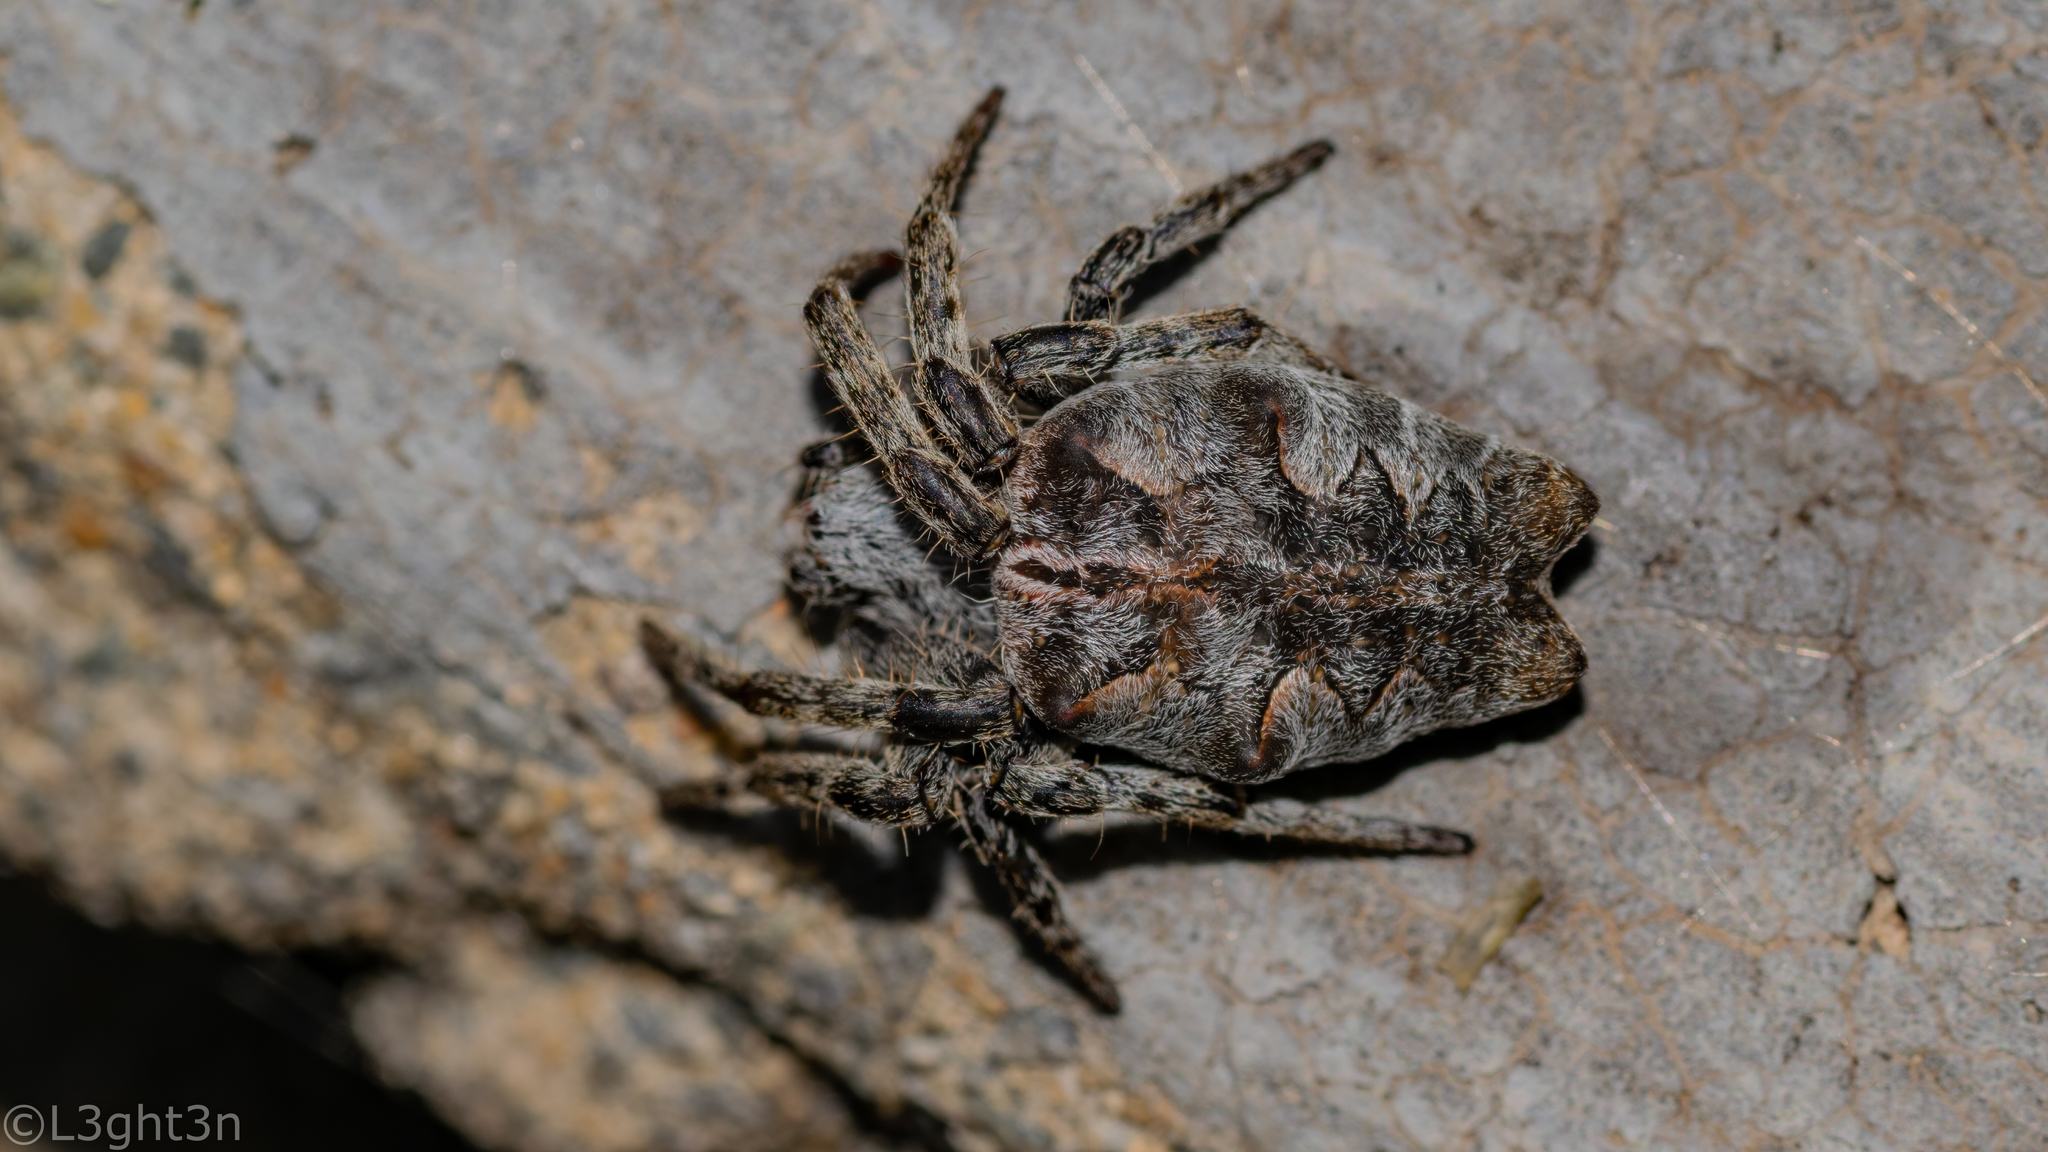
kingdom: Animalia
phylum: Arthropoda
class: Arachnida
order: Araneae
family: Araneidae
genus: Cyrtophora
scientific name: Cyrtophora citricola
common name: Orb weavers
